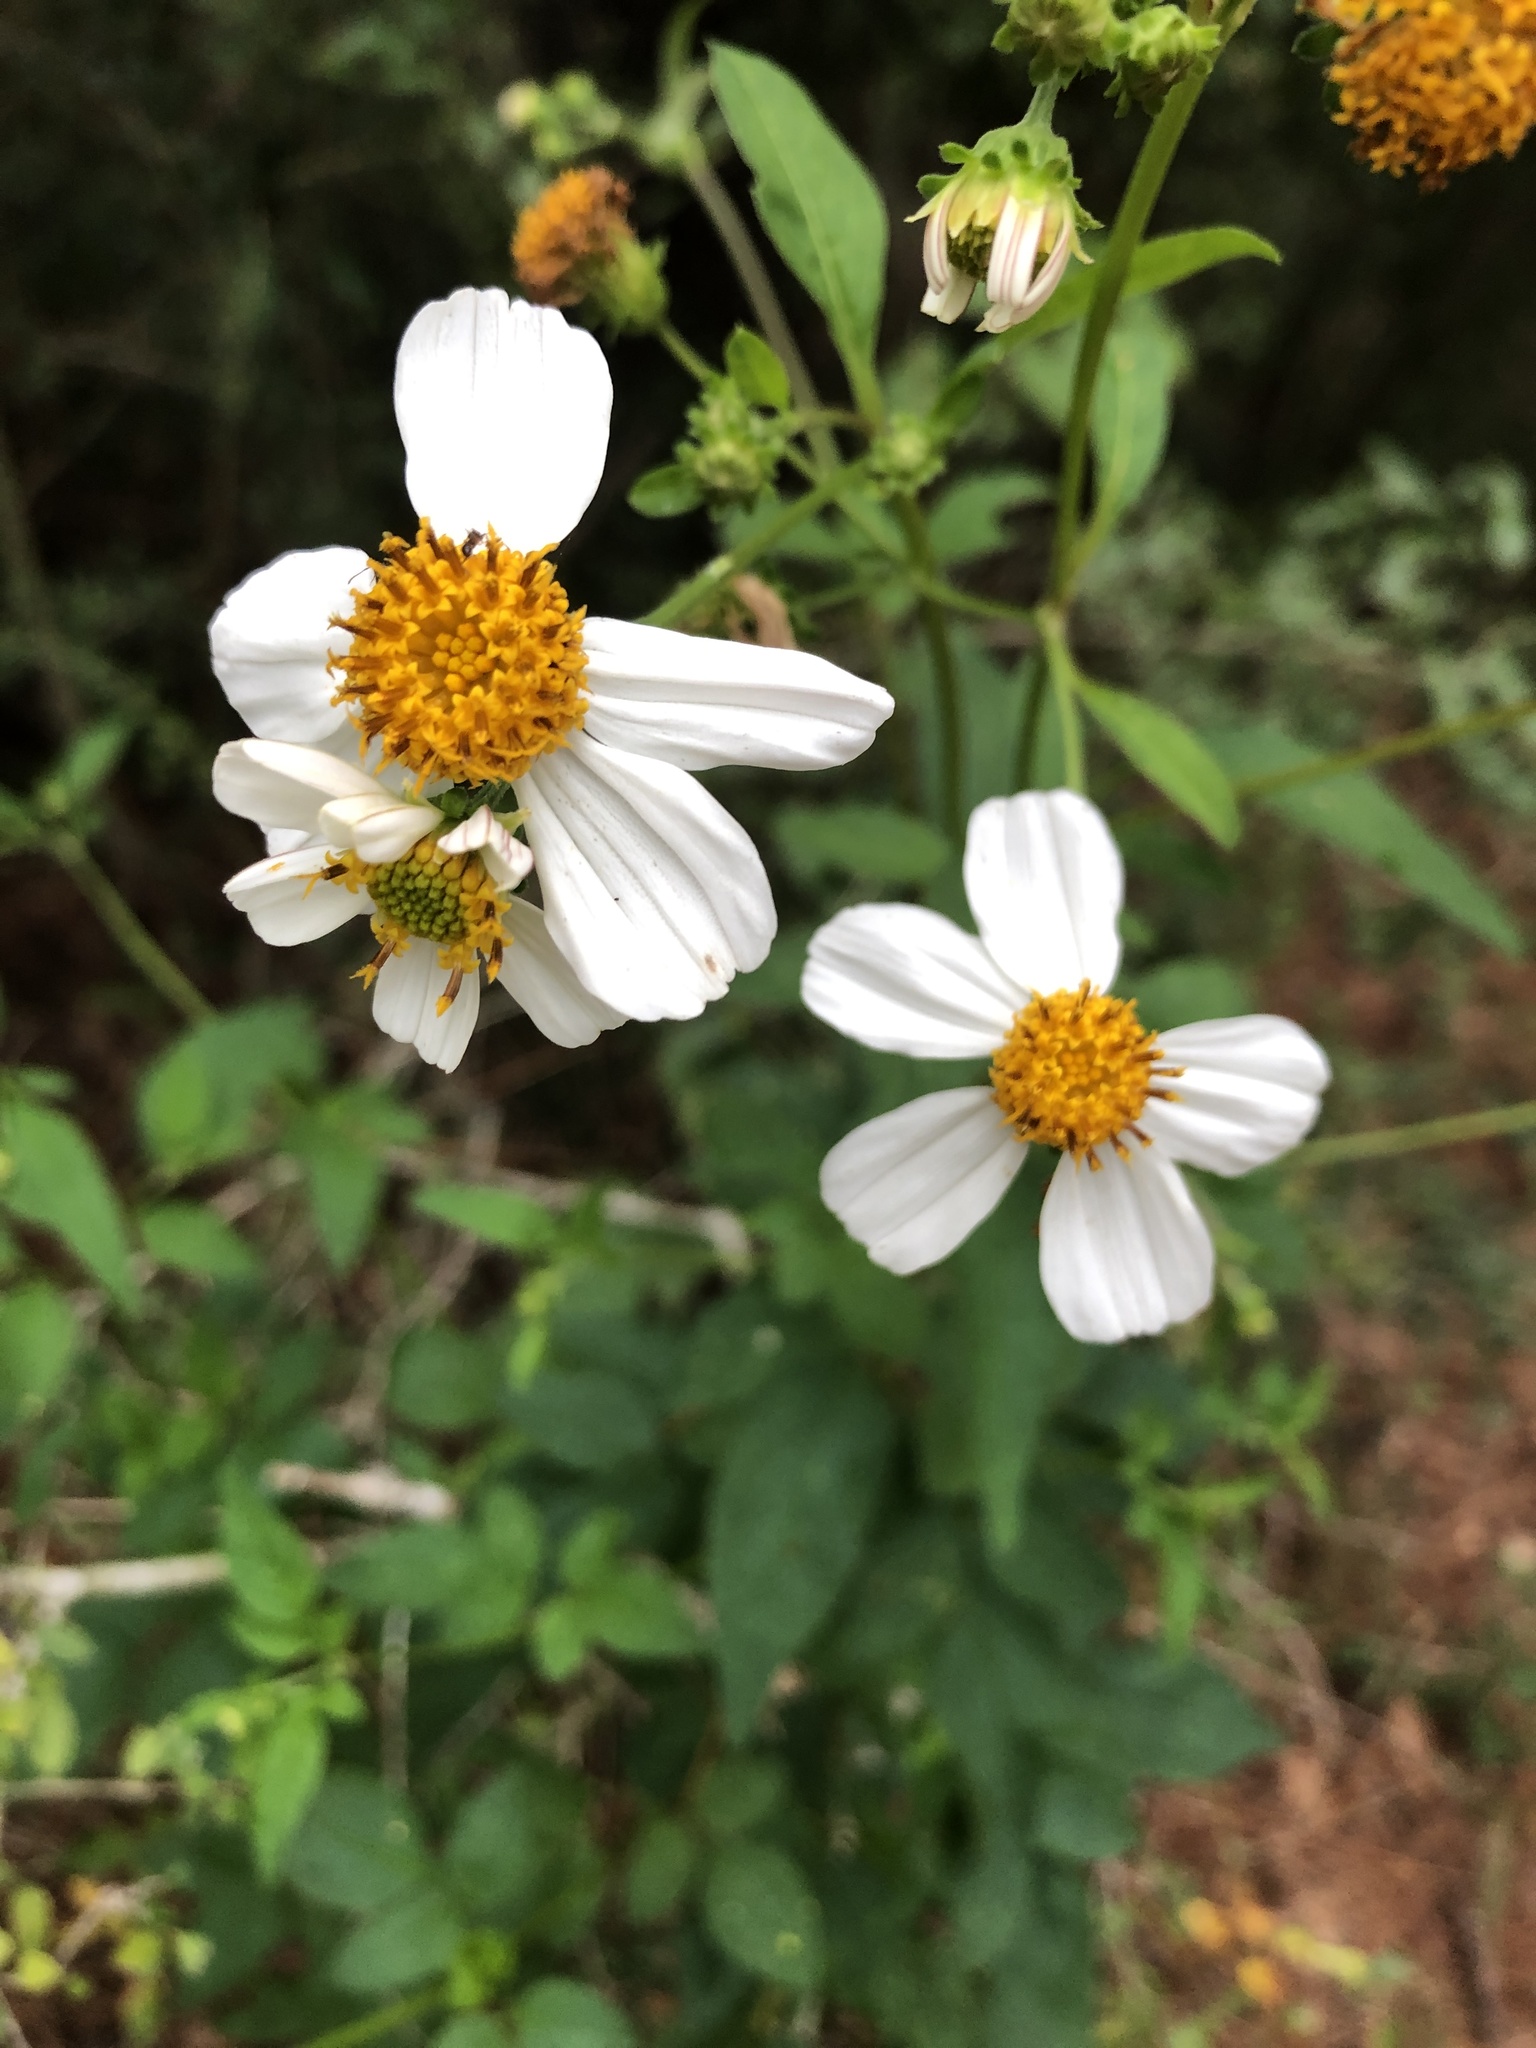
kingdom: Plantae
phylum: Tracheophyta
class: Magnoliopsida
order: Asterales
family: Asteraceae
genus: Bidens
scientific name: Bidens alba
